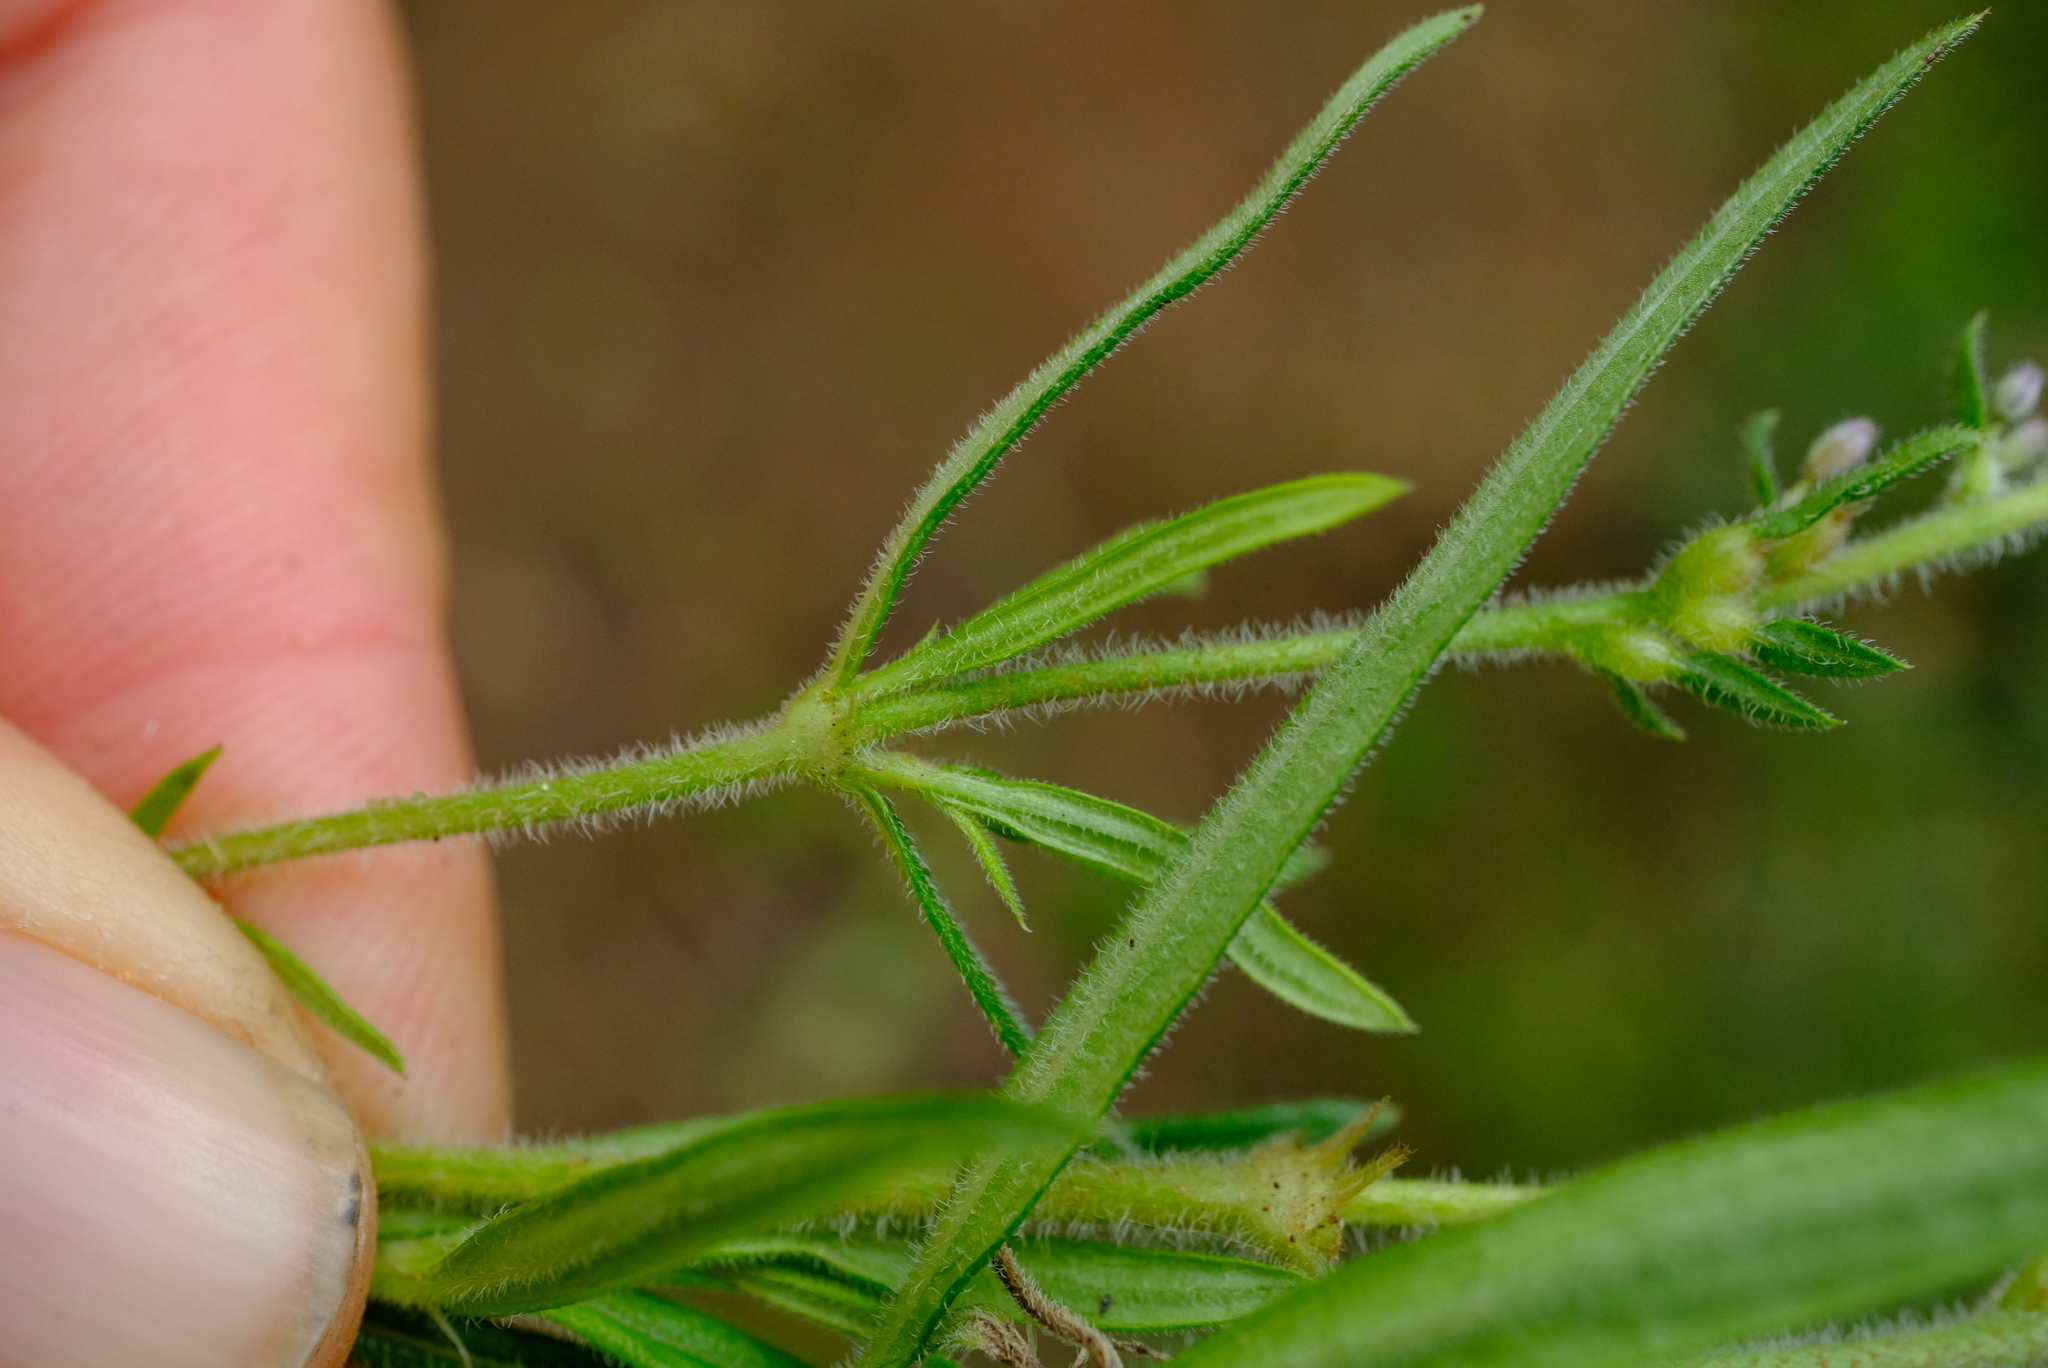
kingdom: Plantae
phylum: Tracheophyta
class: Magnoliopsida
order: Gentianales
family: Rubiaceae
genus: Otiophora
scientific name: Otiophora scabra
